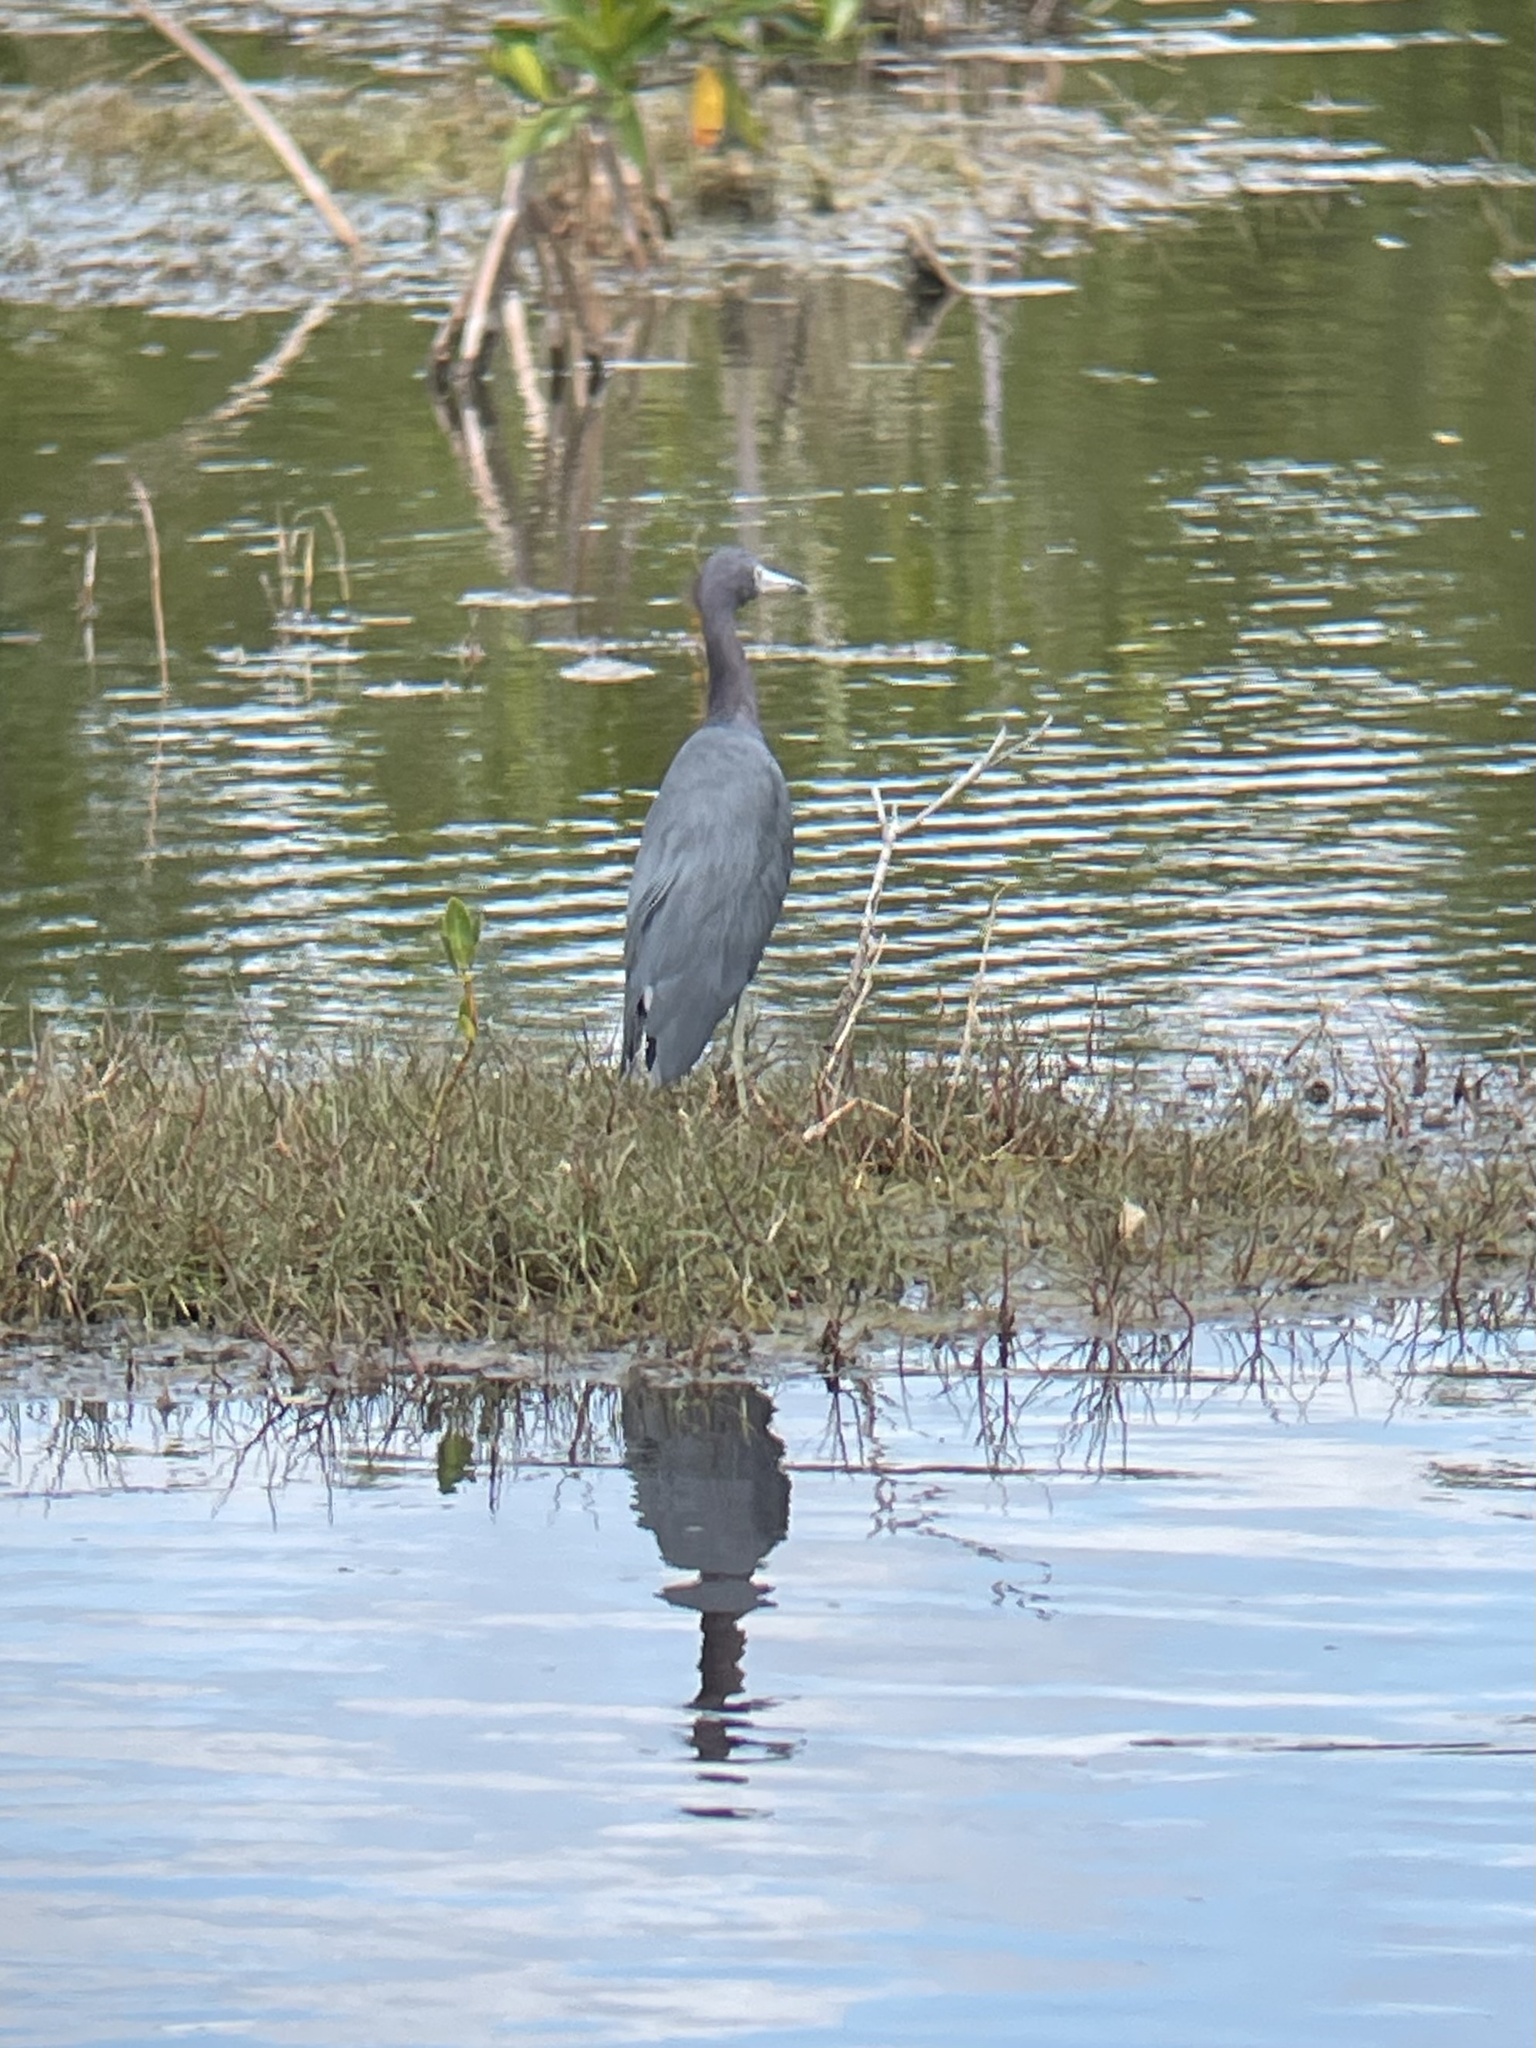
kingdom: Animalia
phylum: Chordata
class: Aves
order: Pelecaniformes
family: Ardeidae
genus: Egretta
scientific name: Egretta caerulea
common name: Little blue heron
